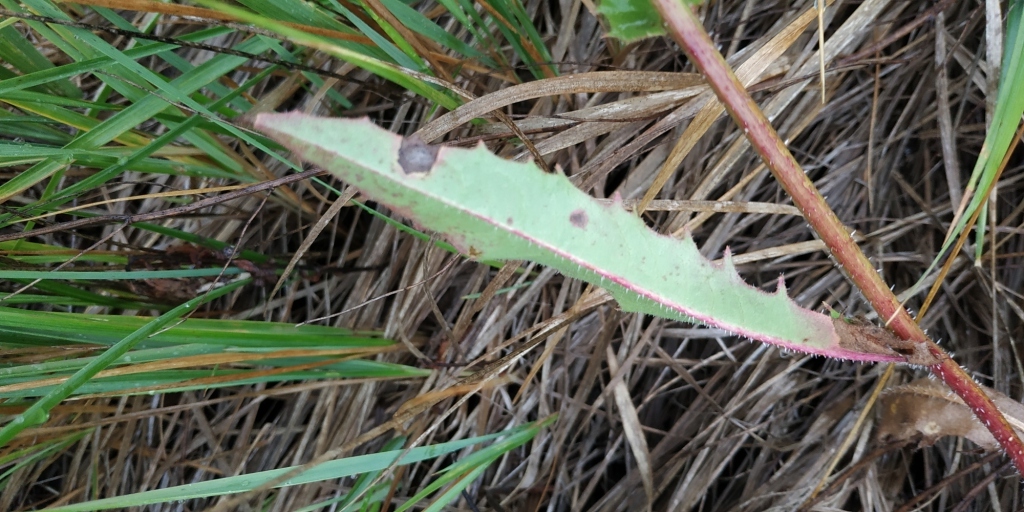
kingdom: Plantae
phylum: Tracheophyta
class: Magnoliopsida
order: Asterales
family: Asteraceae
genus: Picris
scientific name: Picris hieracioides
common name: Hawkweed oxtongue
